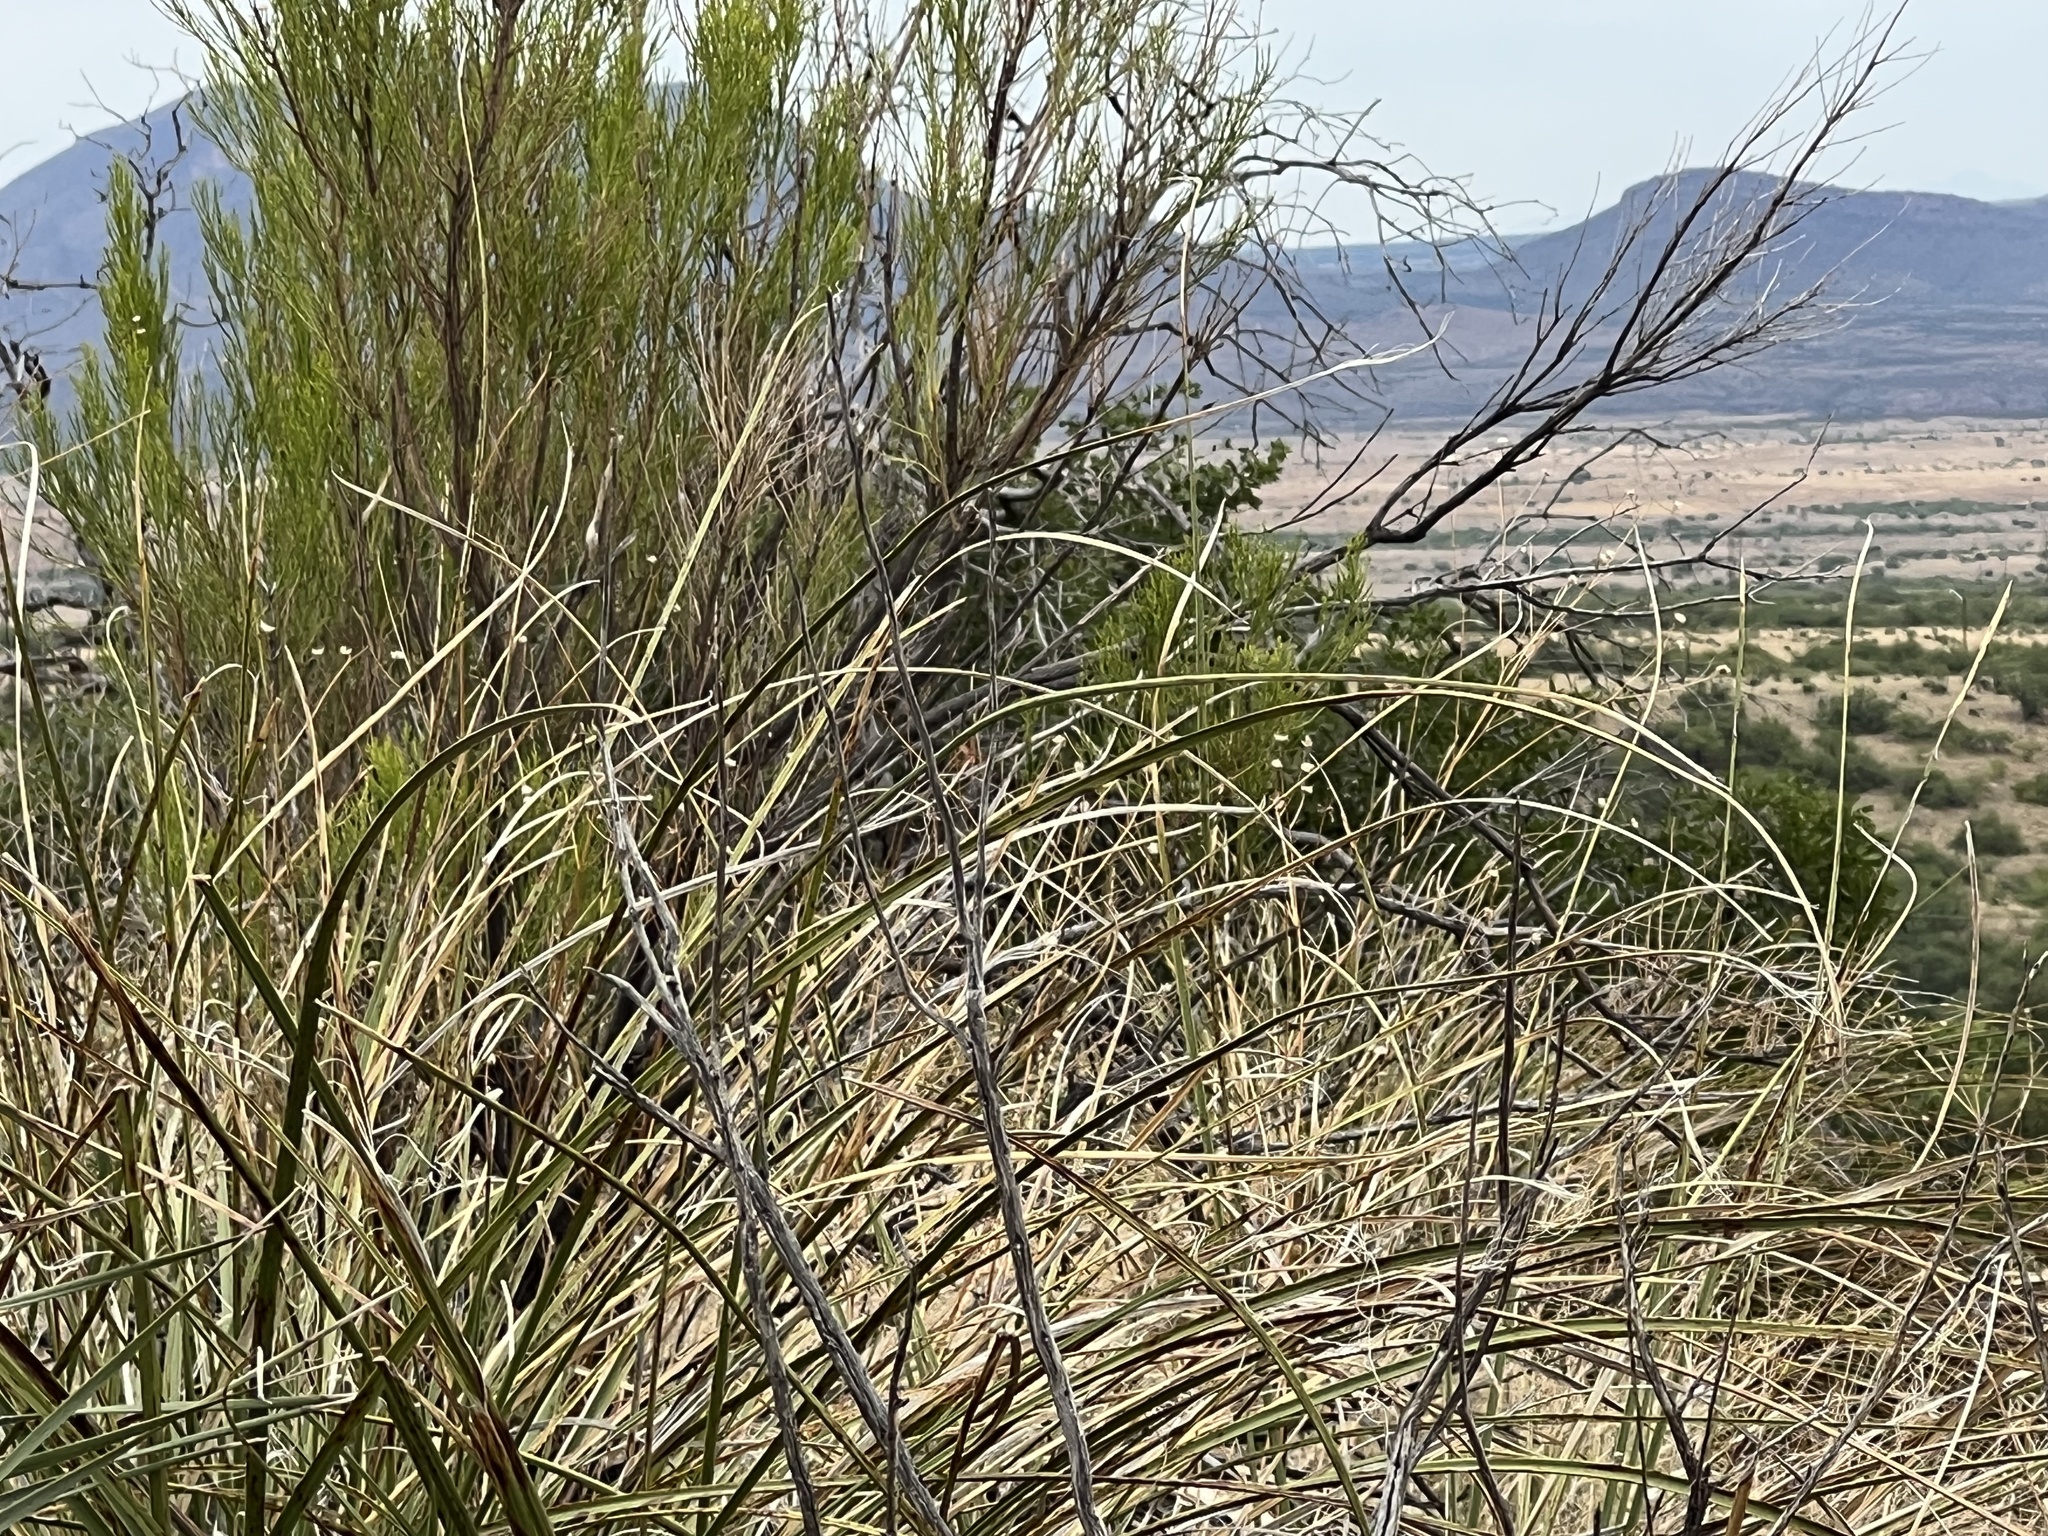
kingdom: Plantae
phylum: Tracheophyta
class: Liliopsida
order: Asparagales
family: Asparagaceae
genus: Nolina
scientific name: Nolina microcarpa
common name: Bear-grass
